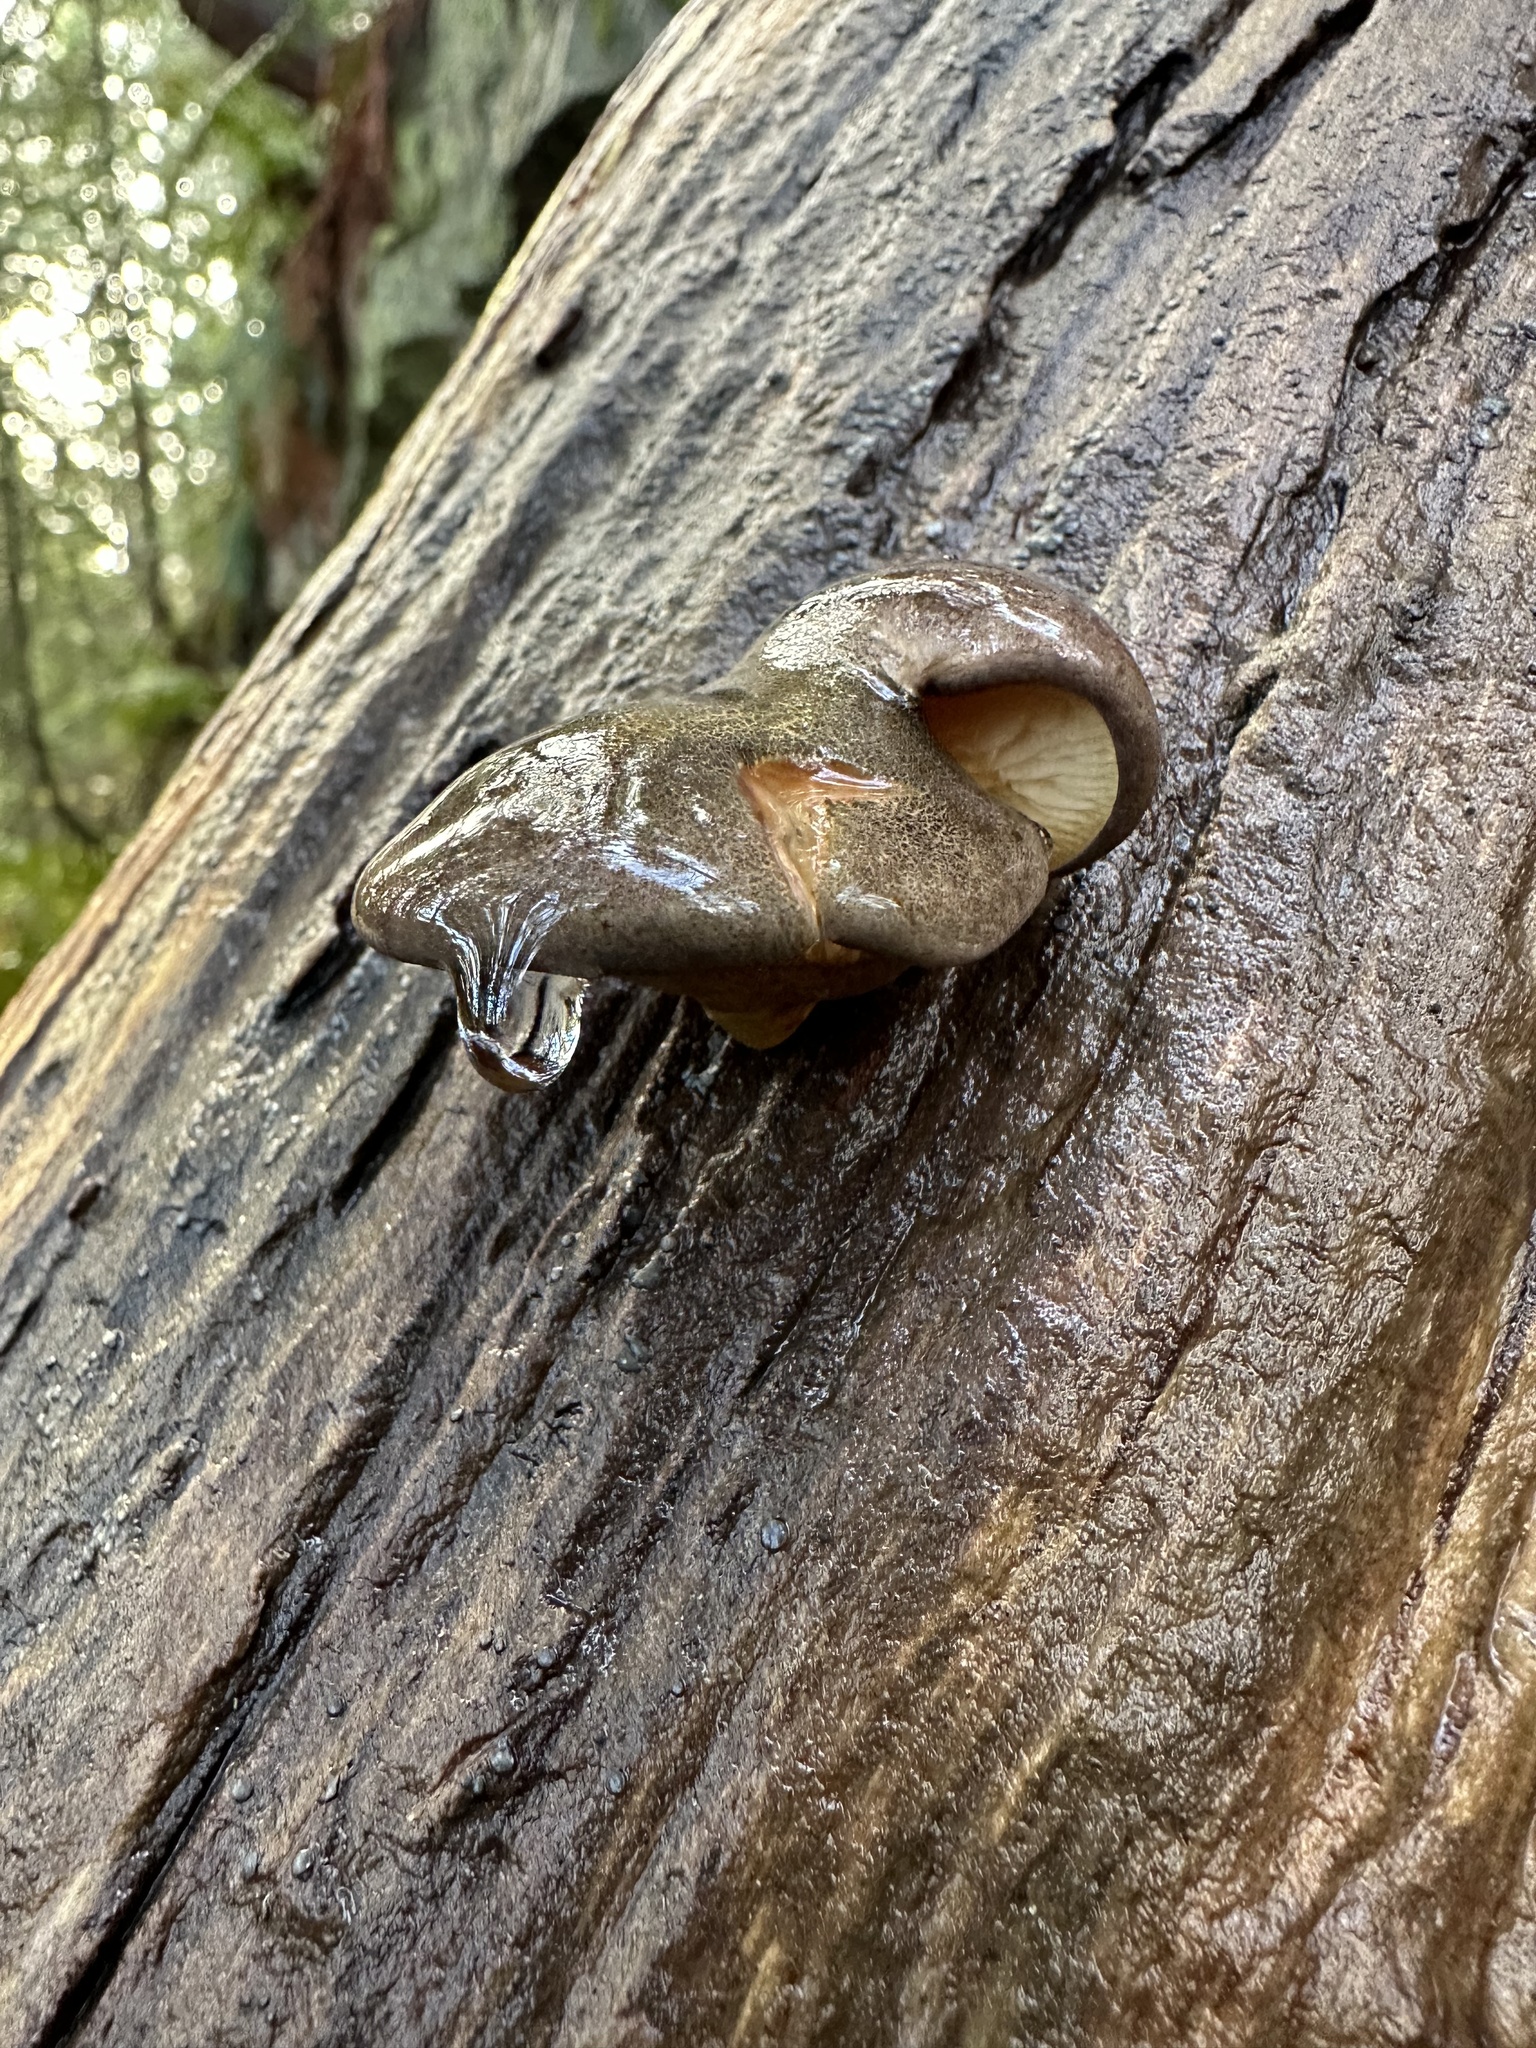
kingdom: Fungi
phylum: Basidiomycota
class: Agaricomycetes
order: Agaricales
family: Sarcomyxaceae
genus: Sarcomyxa
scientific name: Sarcomyxa serotina
